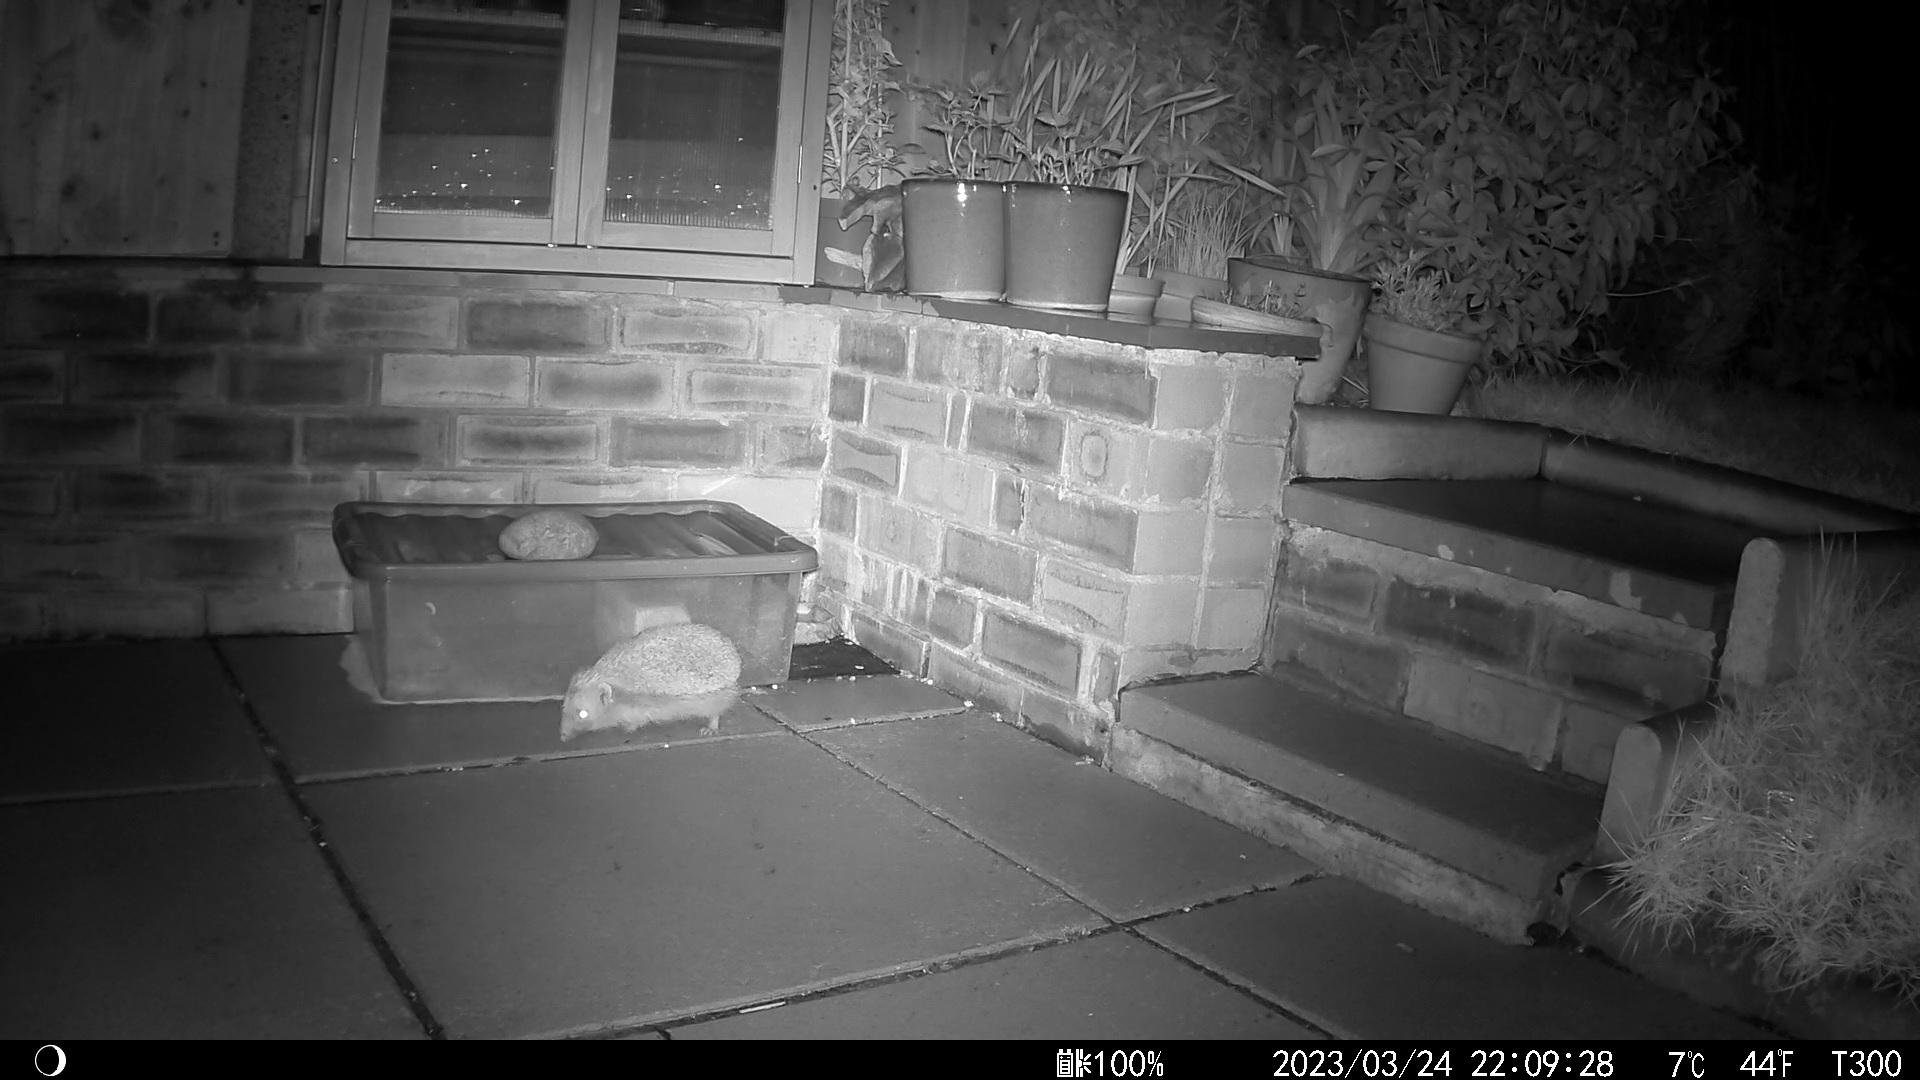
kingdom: Animalia
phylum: Chordata
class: Mammalia
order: Erinaceomorpha
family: Erinaceidae
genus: Erinaceus
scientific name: Erinaceus europaeus
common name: West european hedgehog
